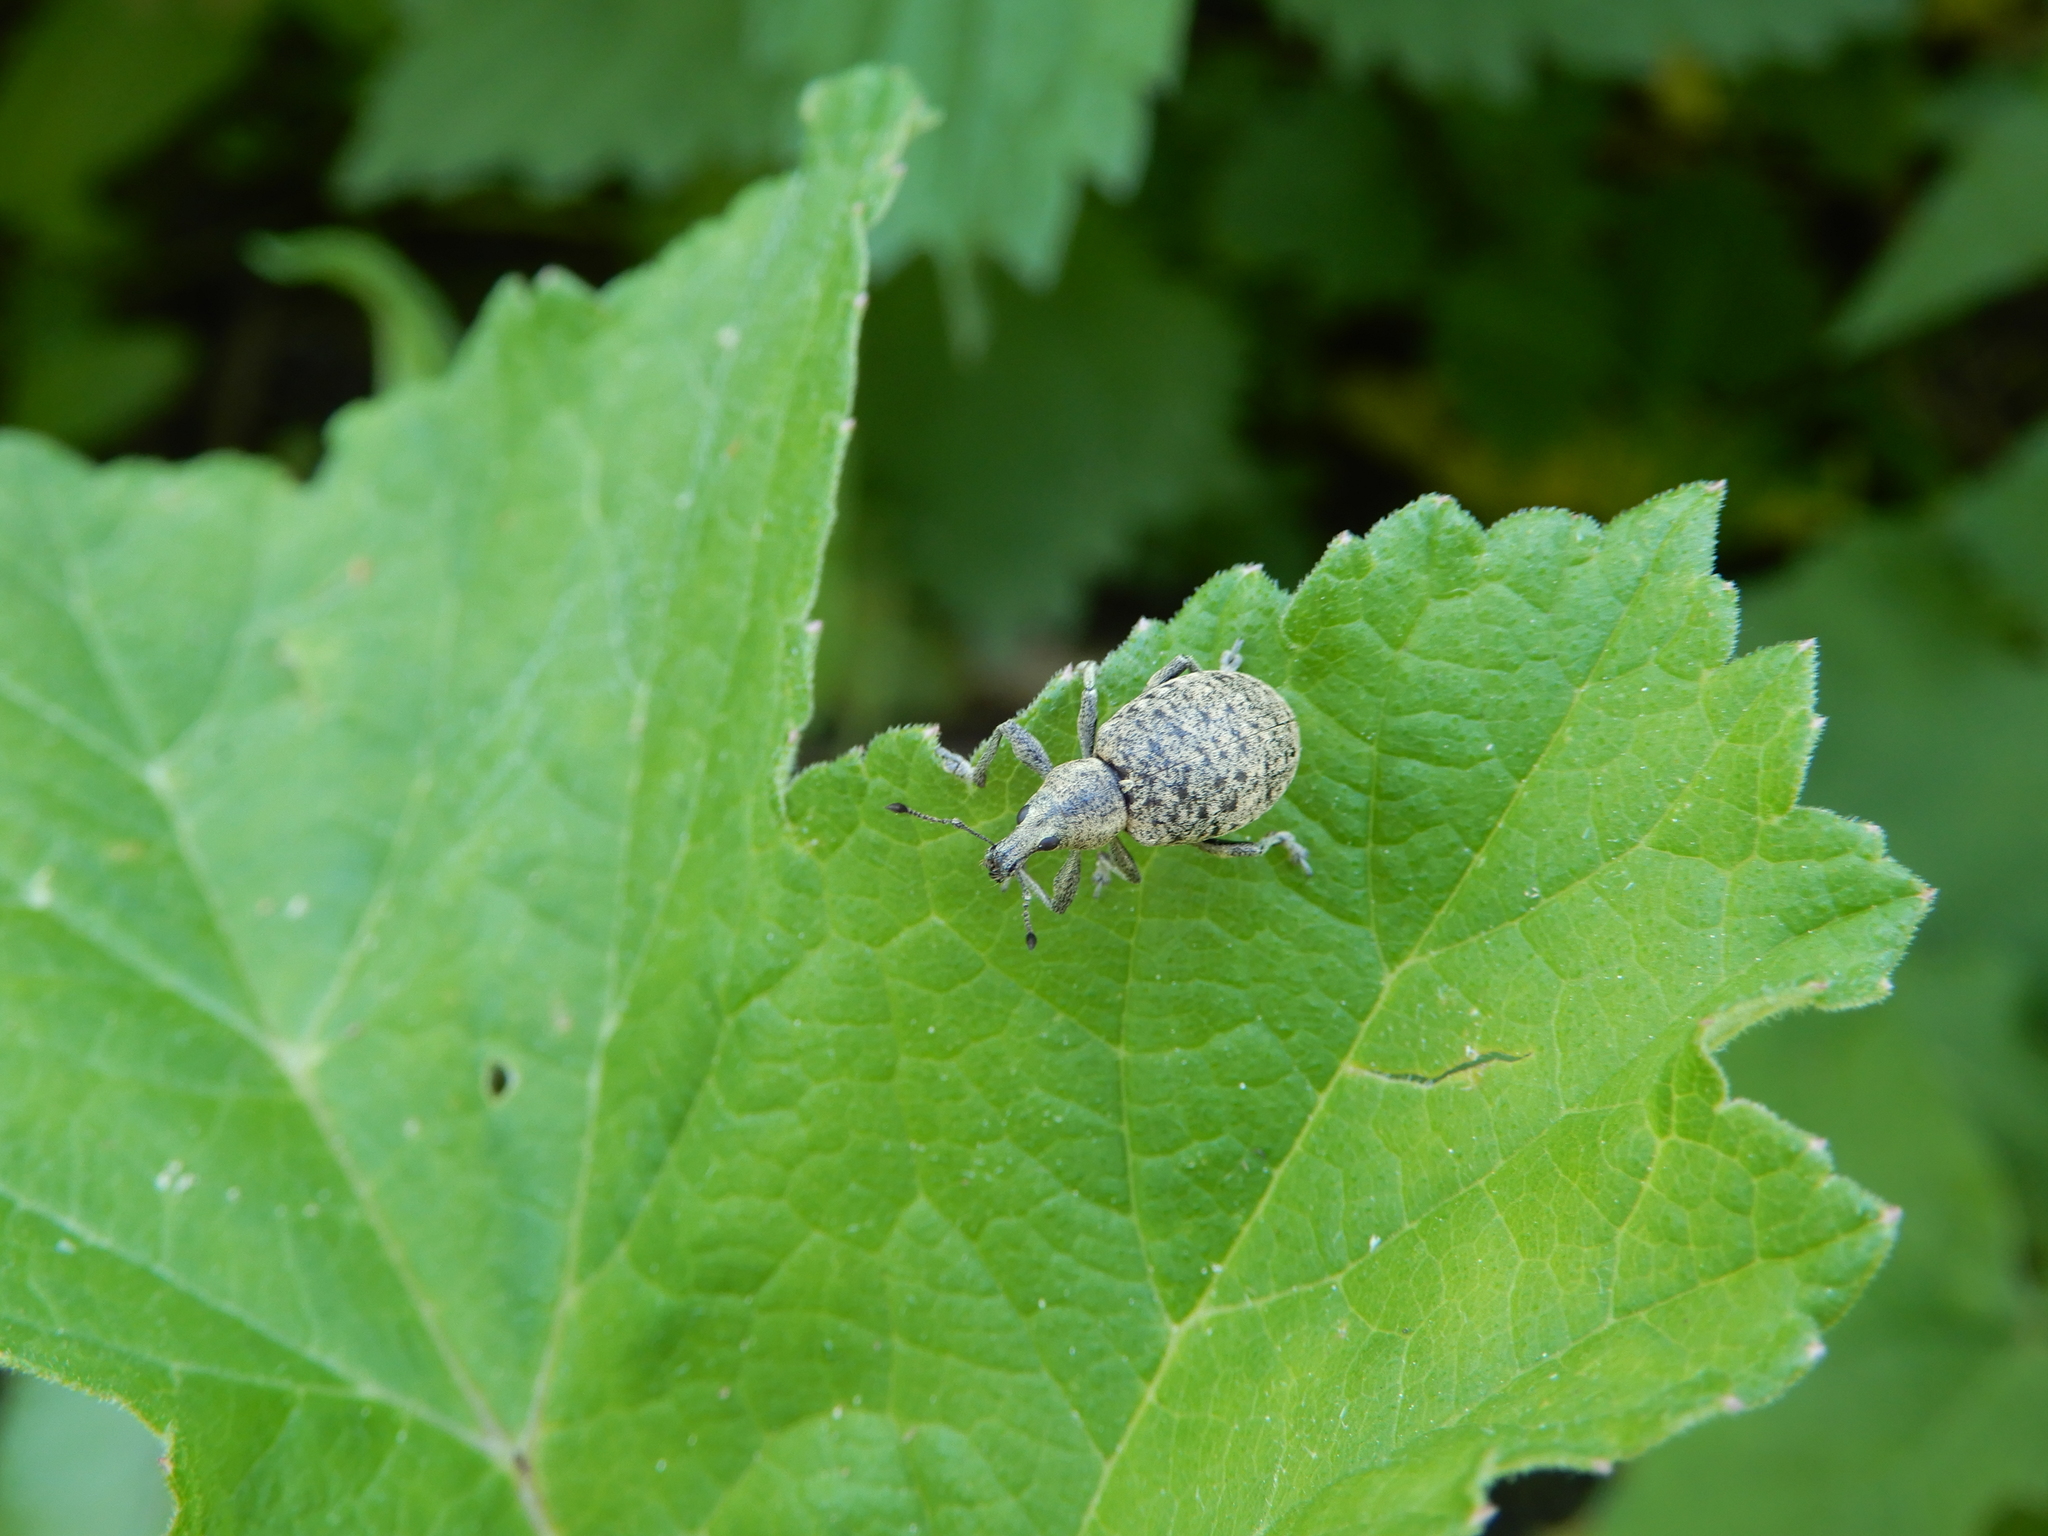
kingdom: Animalia
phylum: Arthropoda
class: Insecta
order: Coleoptera
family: Curculionidae
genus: Liophloeus
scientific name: Liophloeus tessulatus
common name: Weevil
